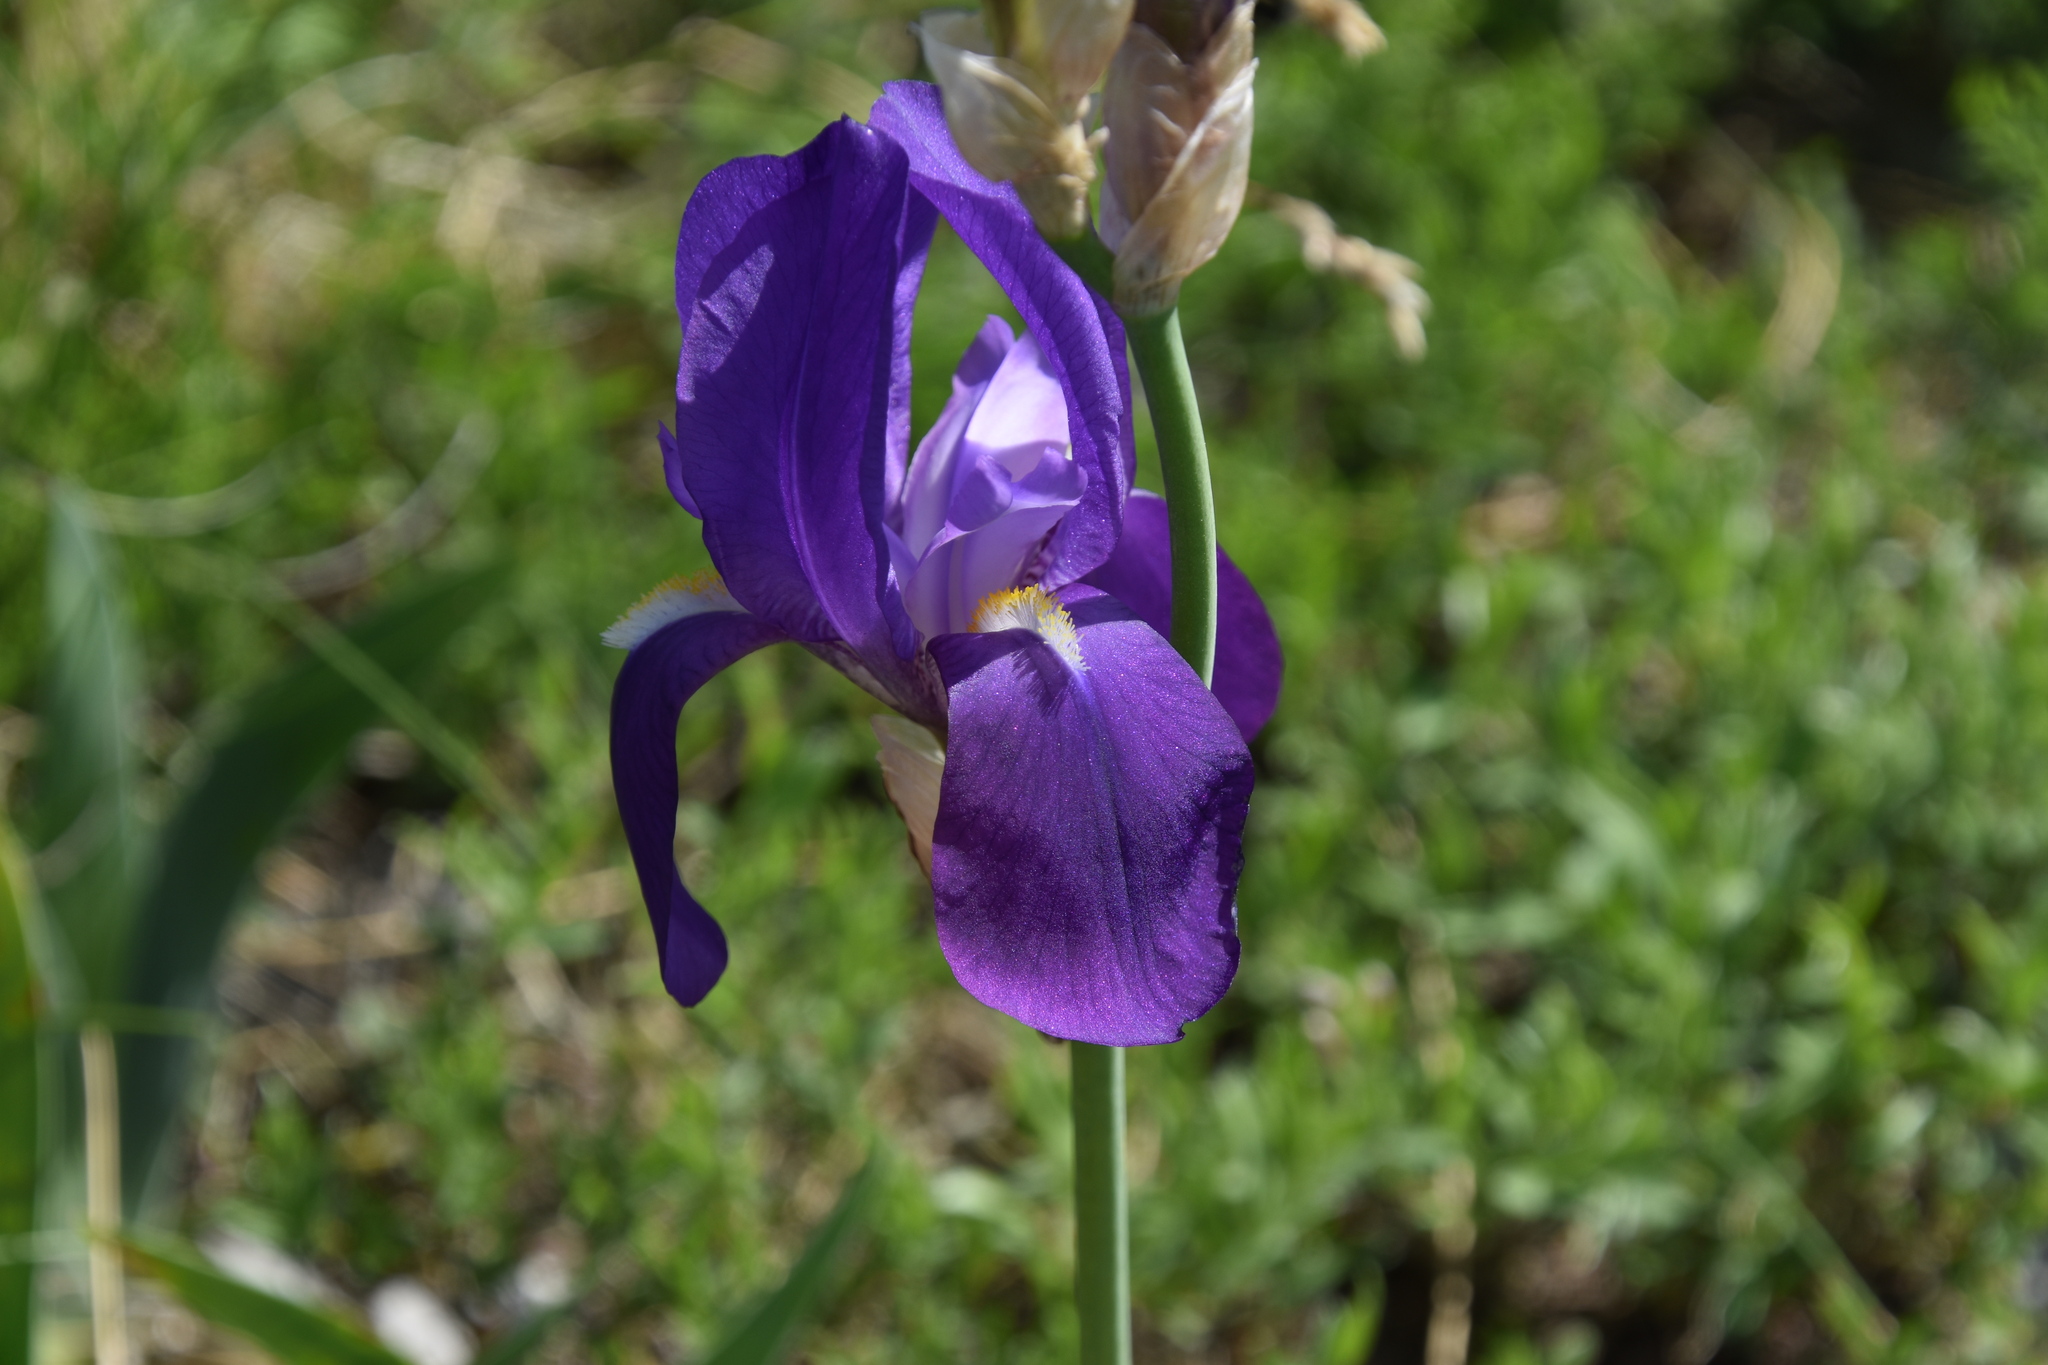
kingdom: Plantae
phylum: Tracheophyta
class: Liliopsida
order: Asparagales
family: Iridaceae
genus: Iris
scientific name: Iris pallida
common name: Sweet iris
